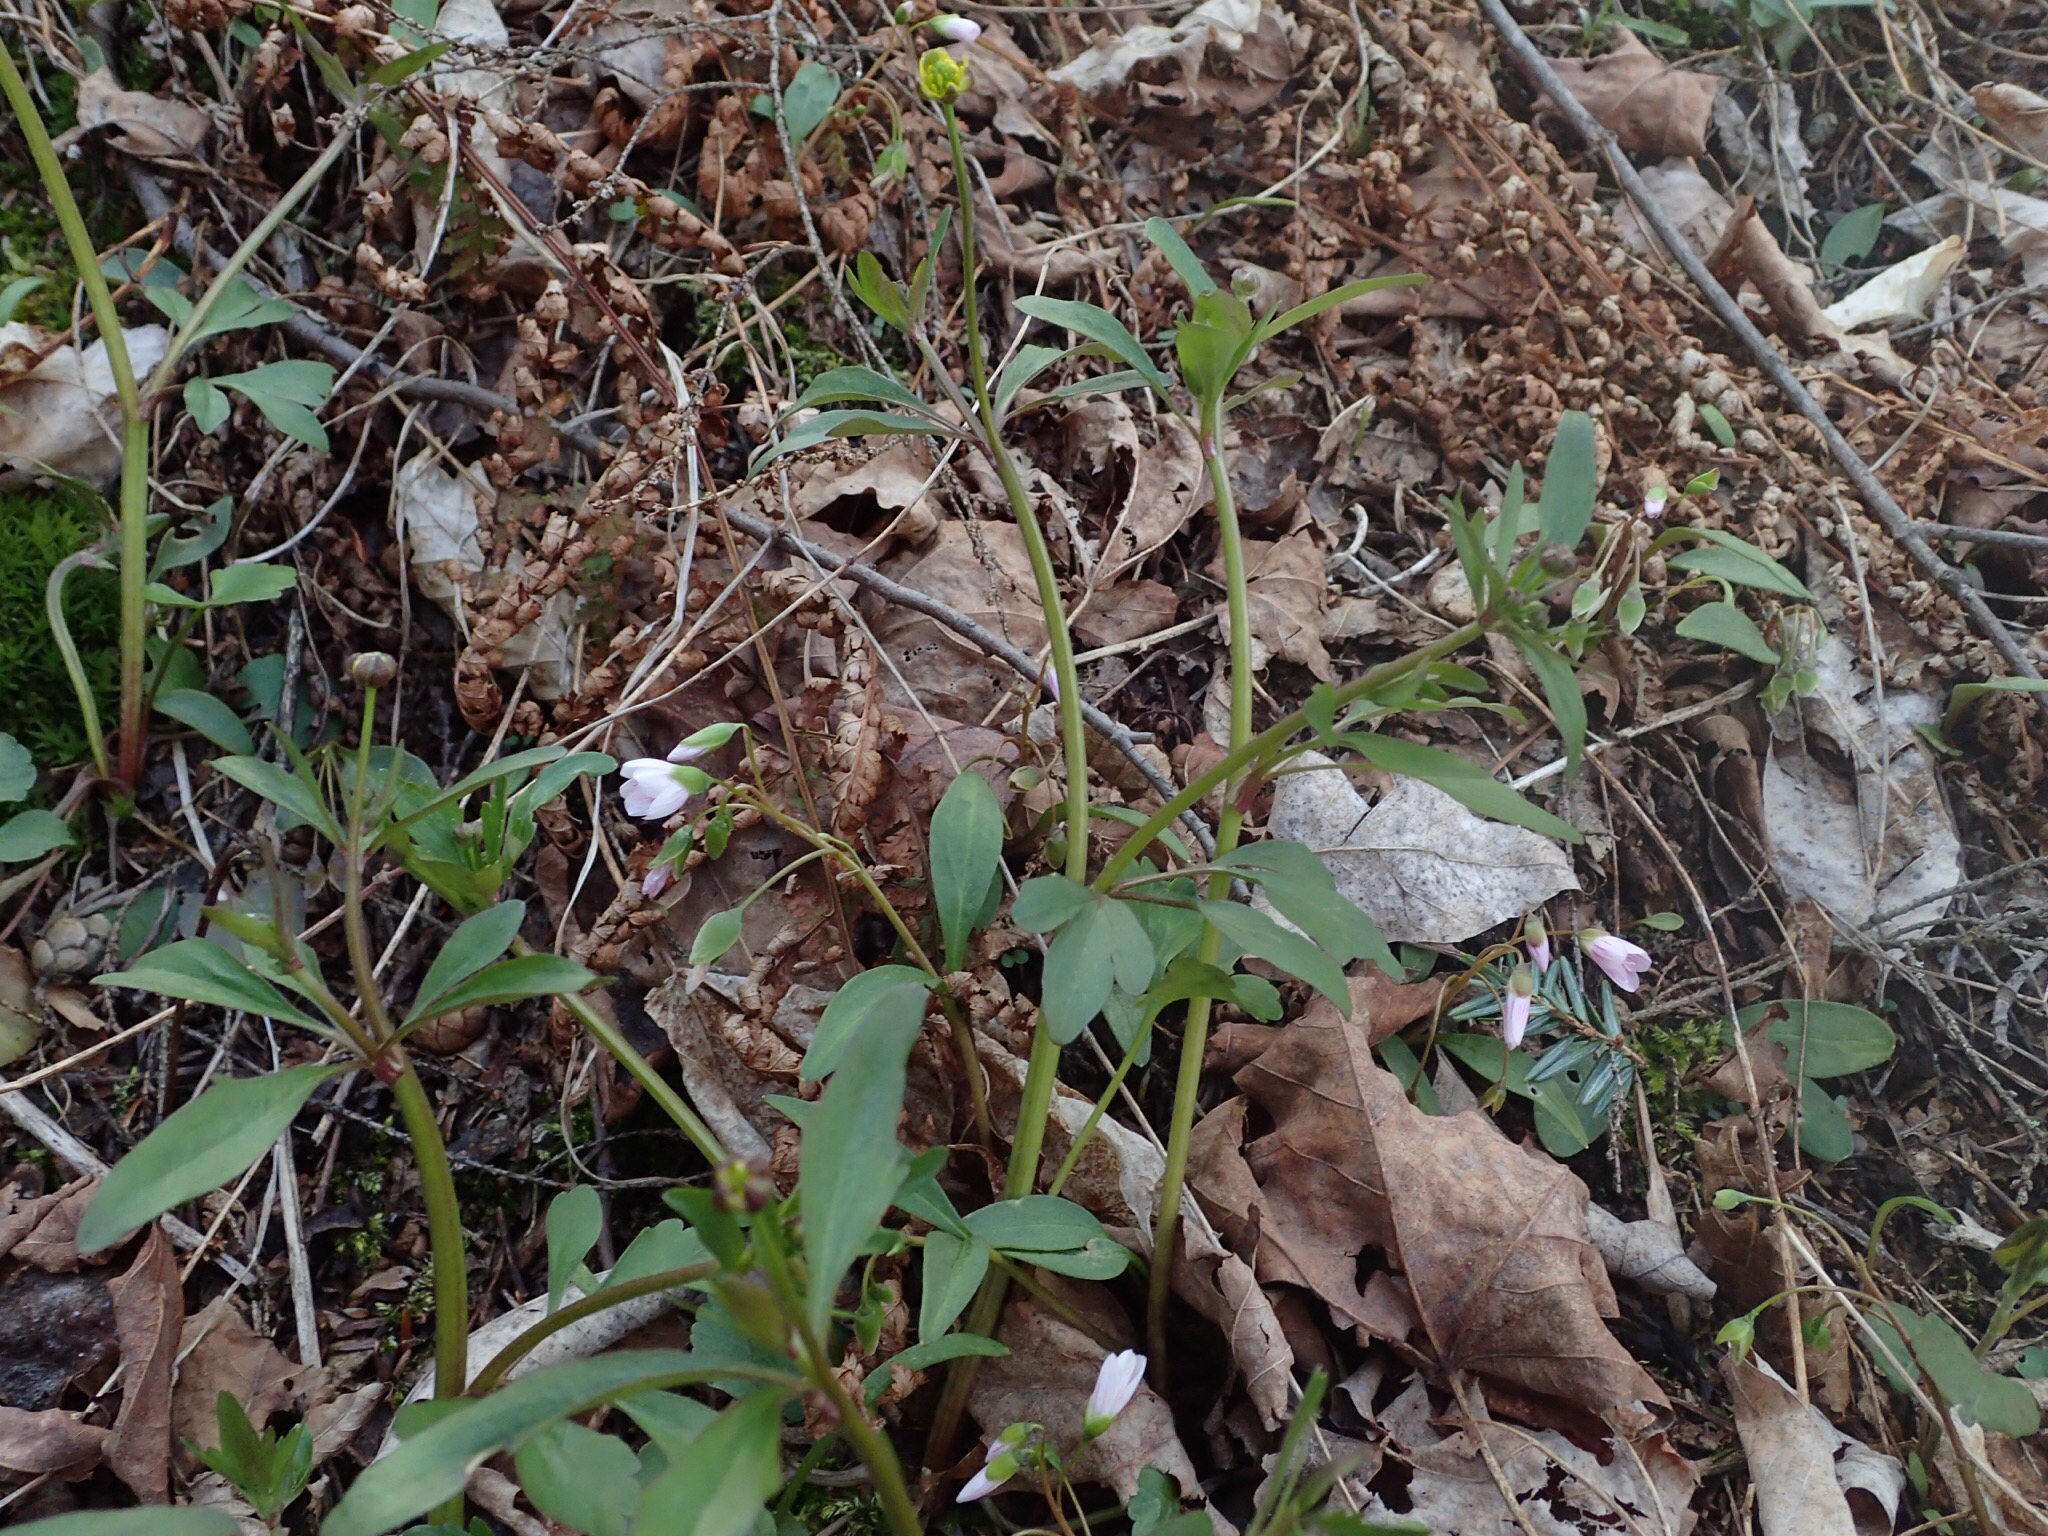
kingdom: Plantae
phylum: Tracheophyta
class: Magnoliopsida
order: Ranunculales
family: Ranunculaceae
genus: Ranunculus
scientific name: Ranunculus abortivus
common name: Early wood buttercup
